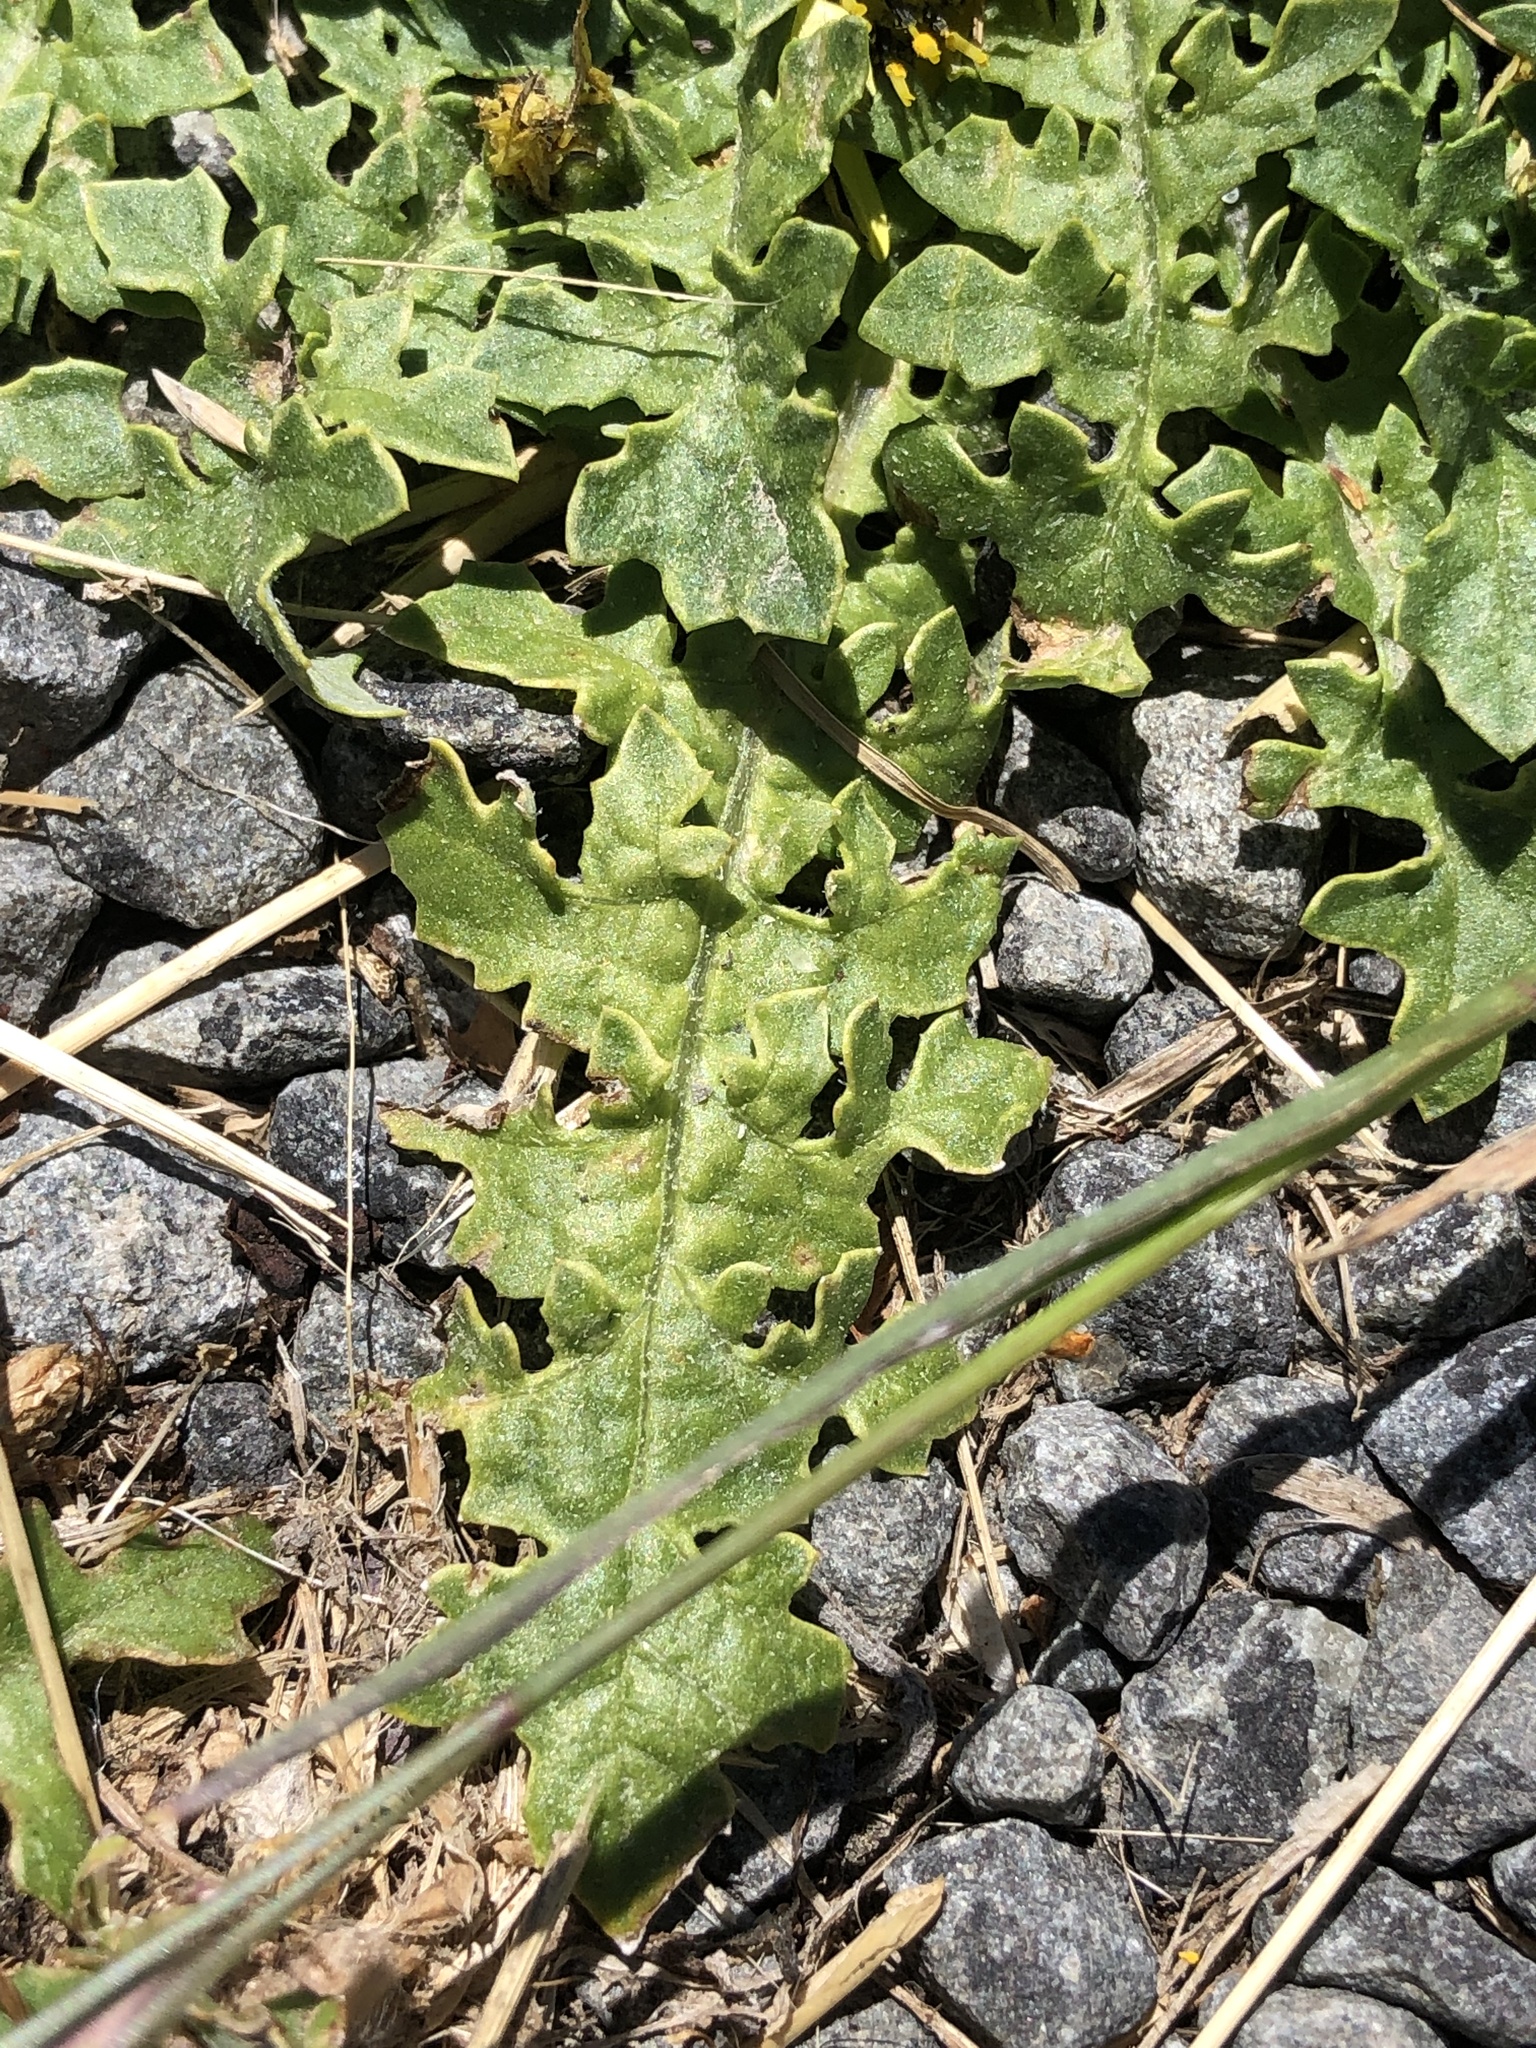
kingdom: Plantae
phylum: Tracheophyta
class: Magnoliopsida
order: Asterales
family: Asteraceae
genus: Arctotheca
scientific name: Arctotheca calendula
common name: Capeweed
